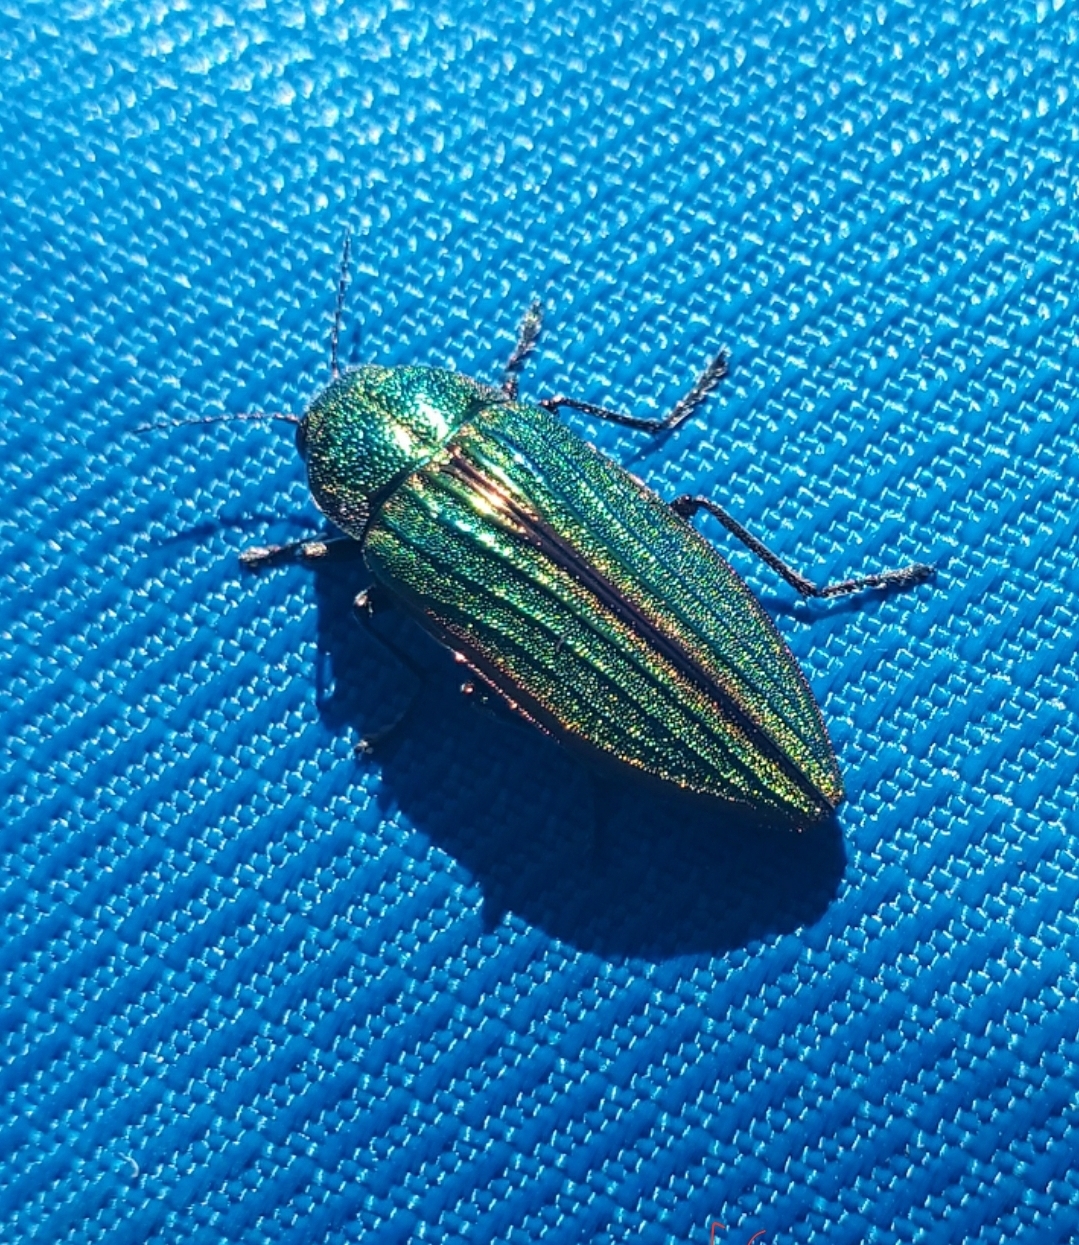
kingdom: Animalia
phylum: Arthropoda
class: Insecta
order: Coleoptera
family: Buprestidae
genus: Buprestis
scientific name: Buprestis aurulenta
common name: Golden buprestid
